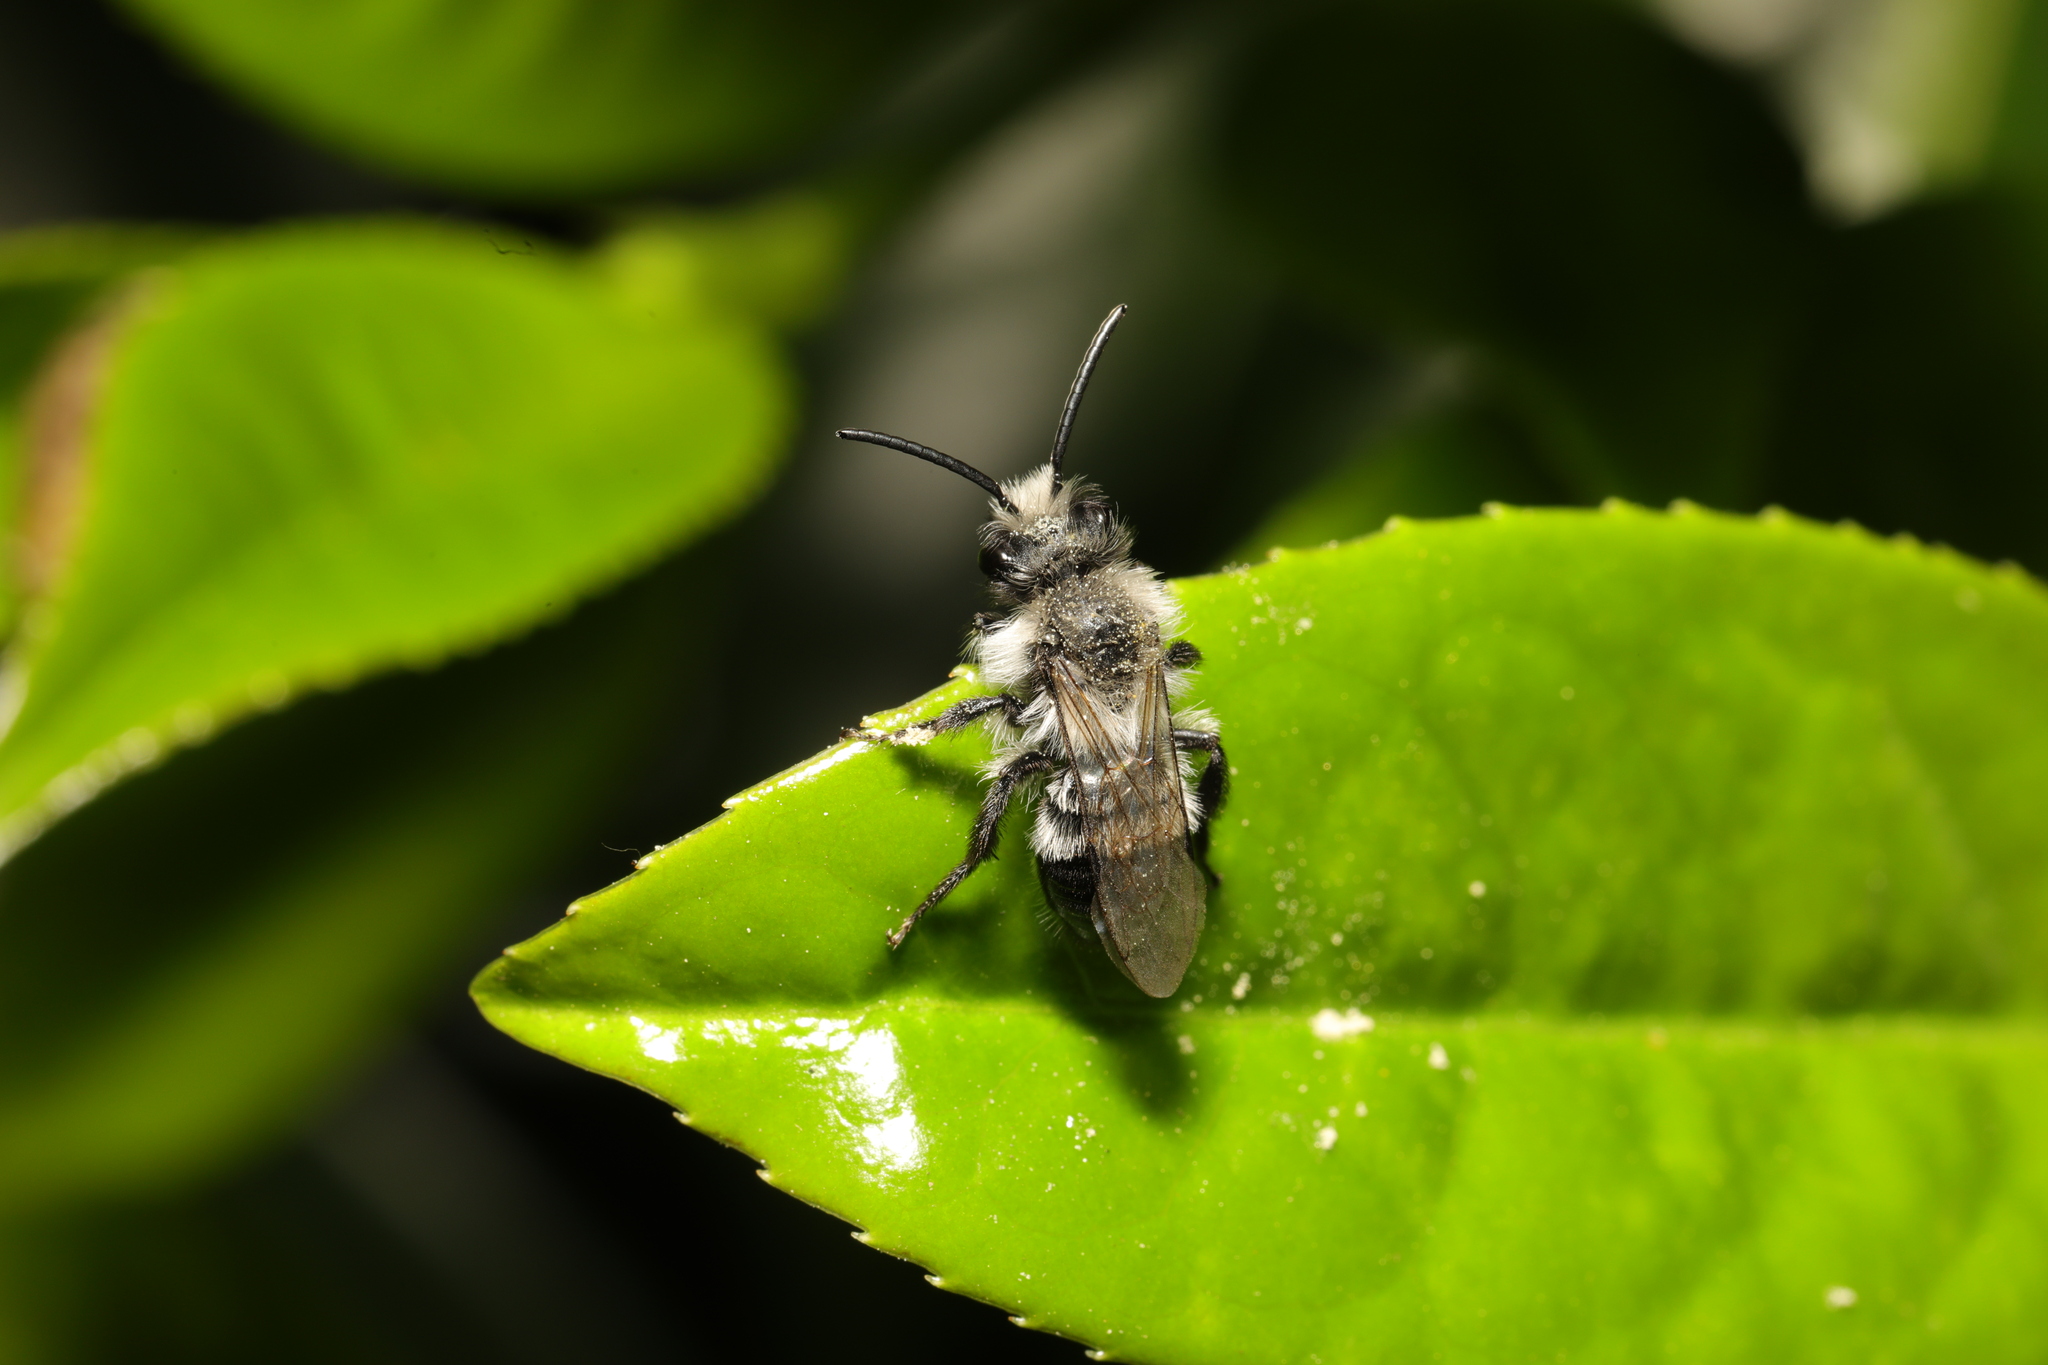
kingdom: Animalia
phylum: Arthropoda
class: Insecta
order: Hymenoptera
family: Andrenidae
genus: Andrena
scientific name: Andrena cineraria
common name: Ashy mining bee
